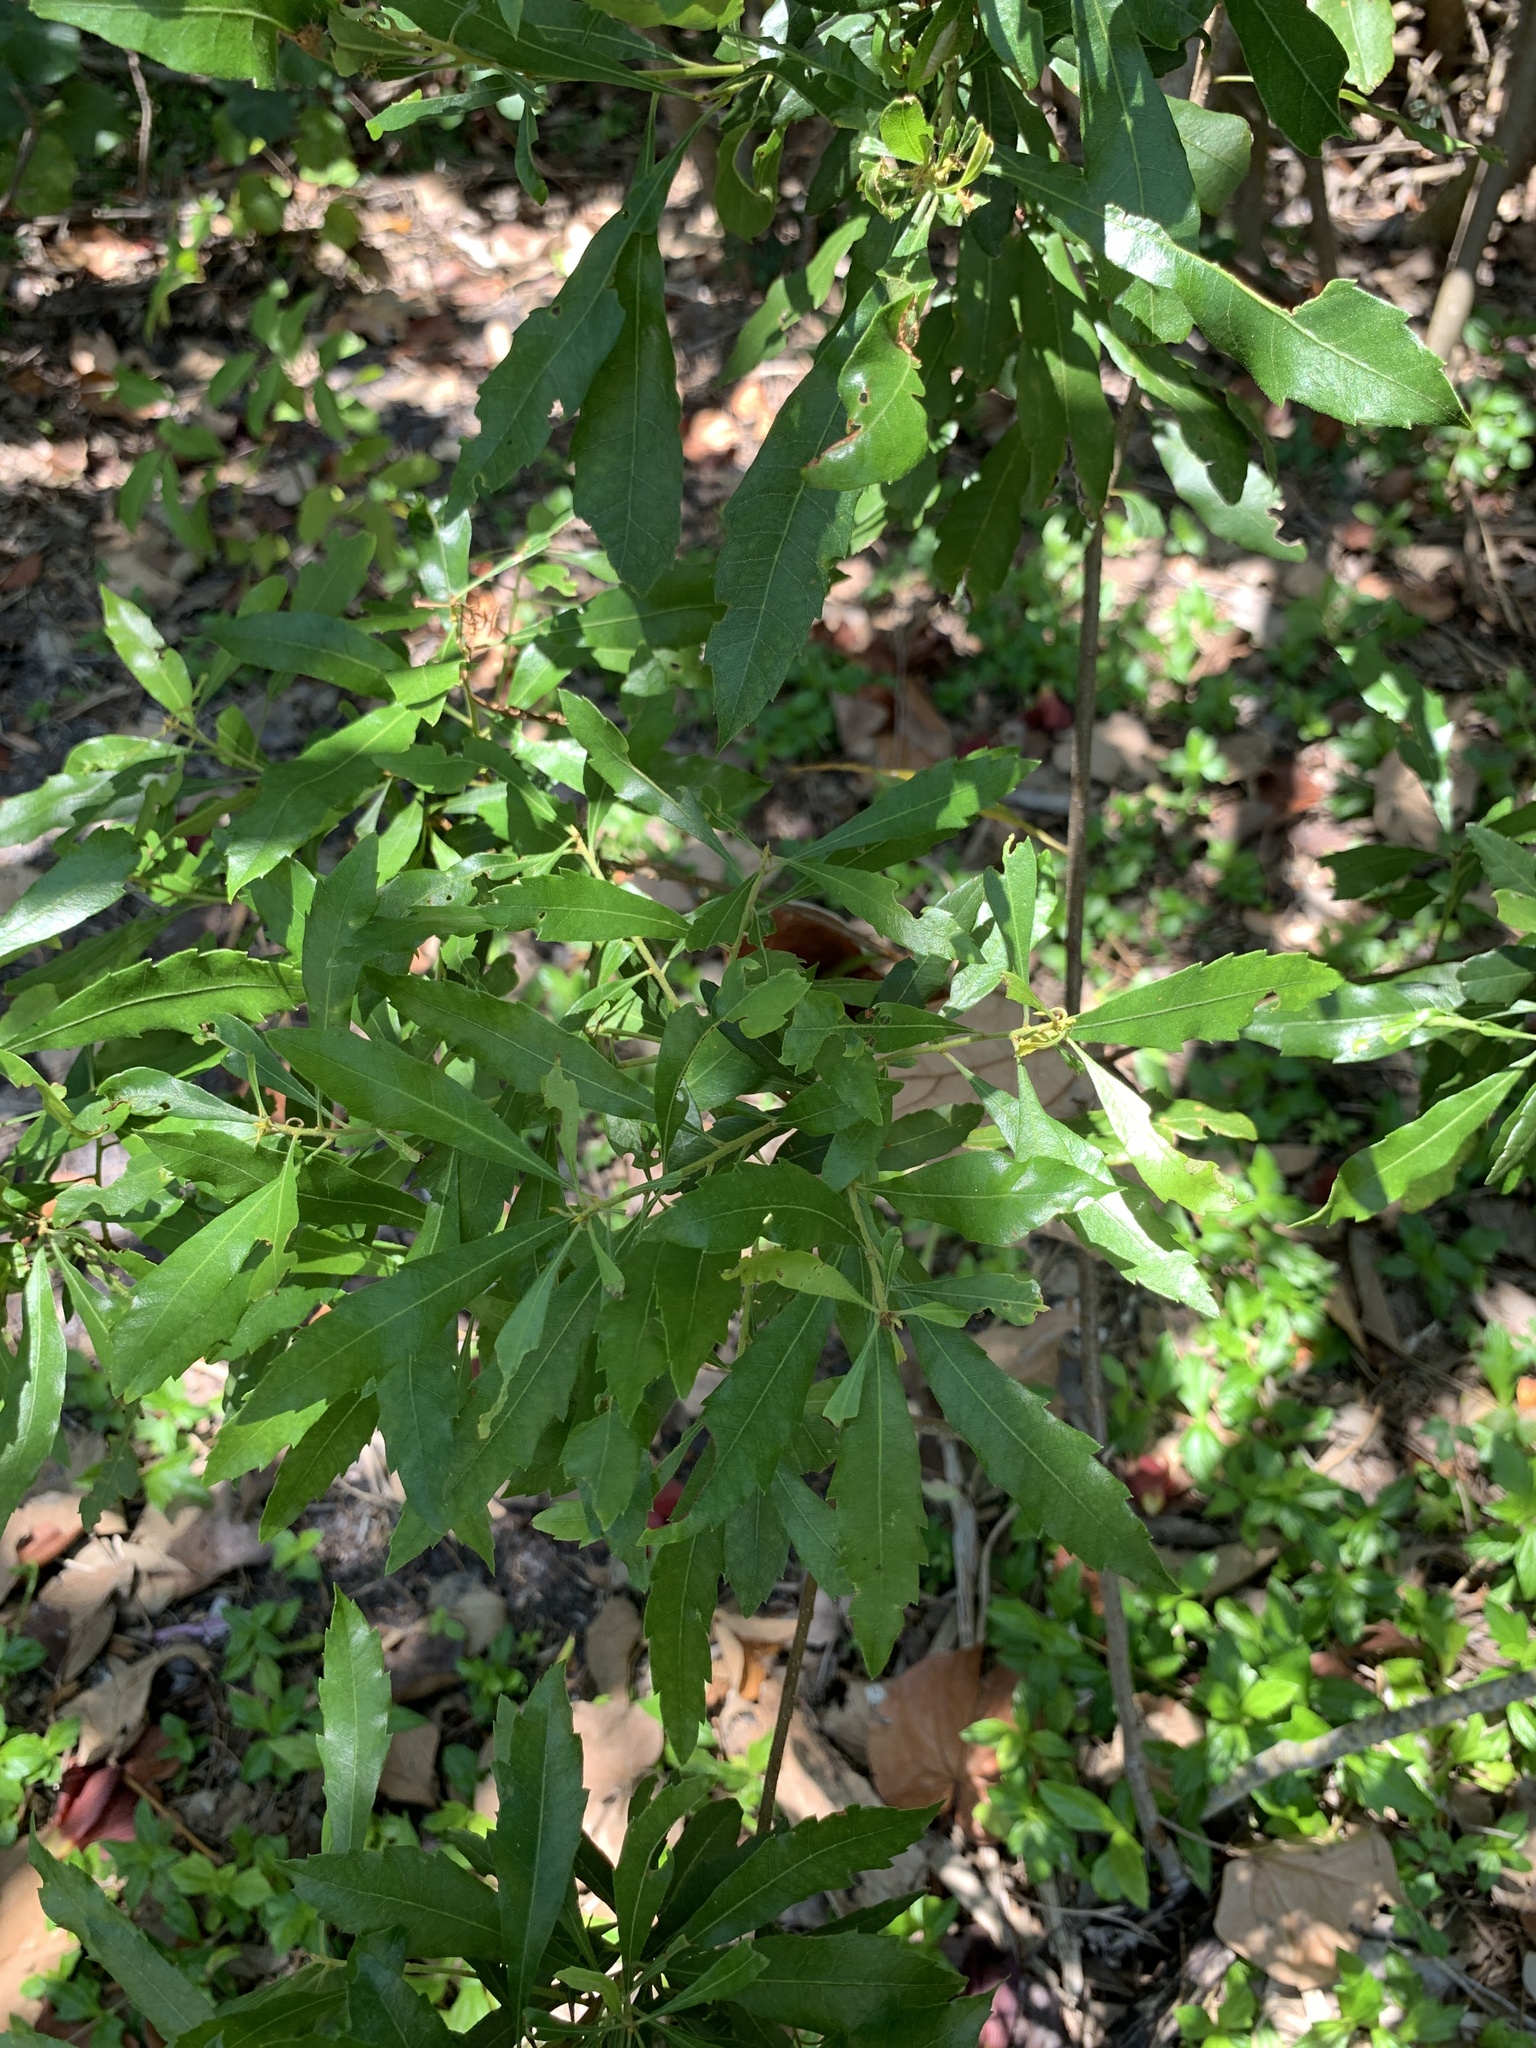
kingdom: Plantae
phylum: Tracheophyta
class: Magnoliopsida
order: Fagales
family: Myricaceae
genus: Morella
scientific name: Morella cerifera
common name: Wax myrtle
